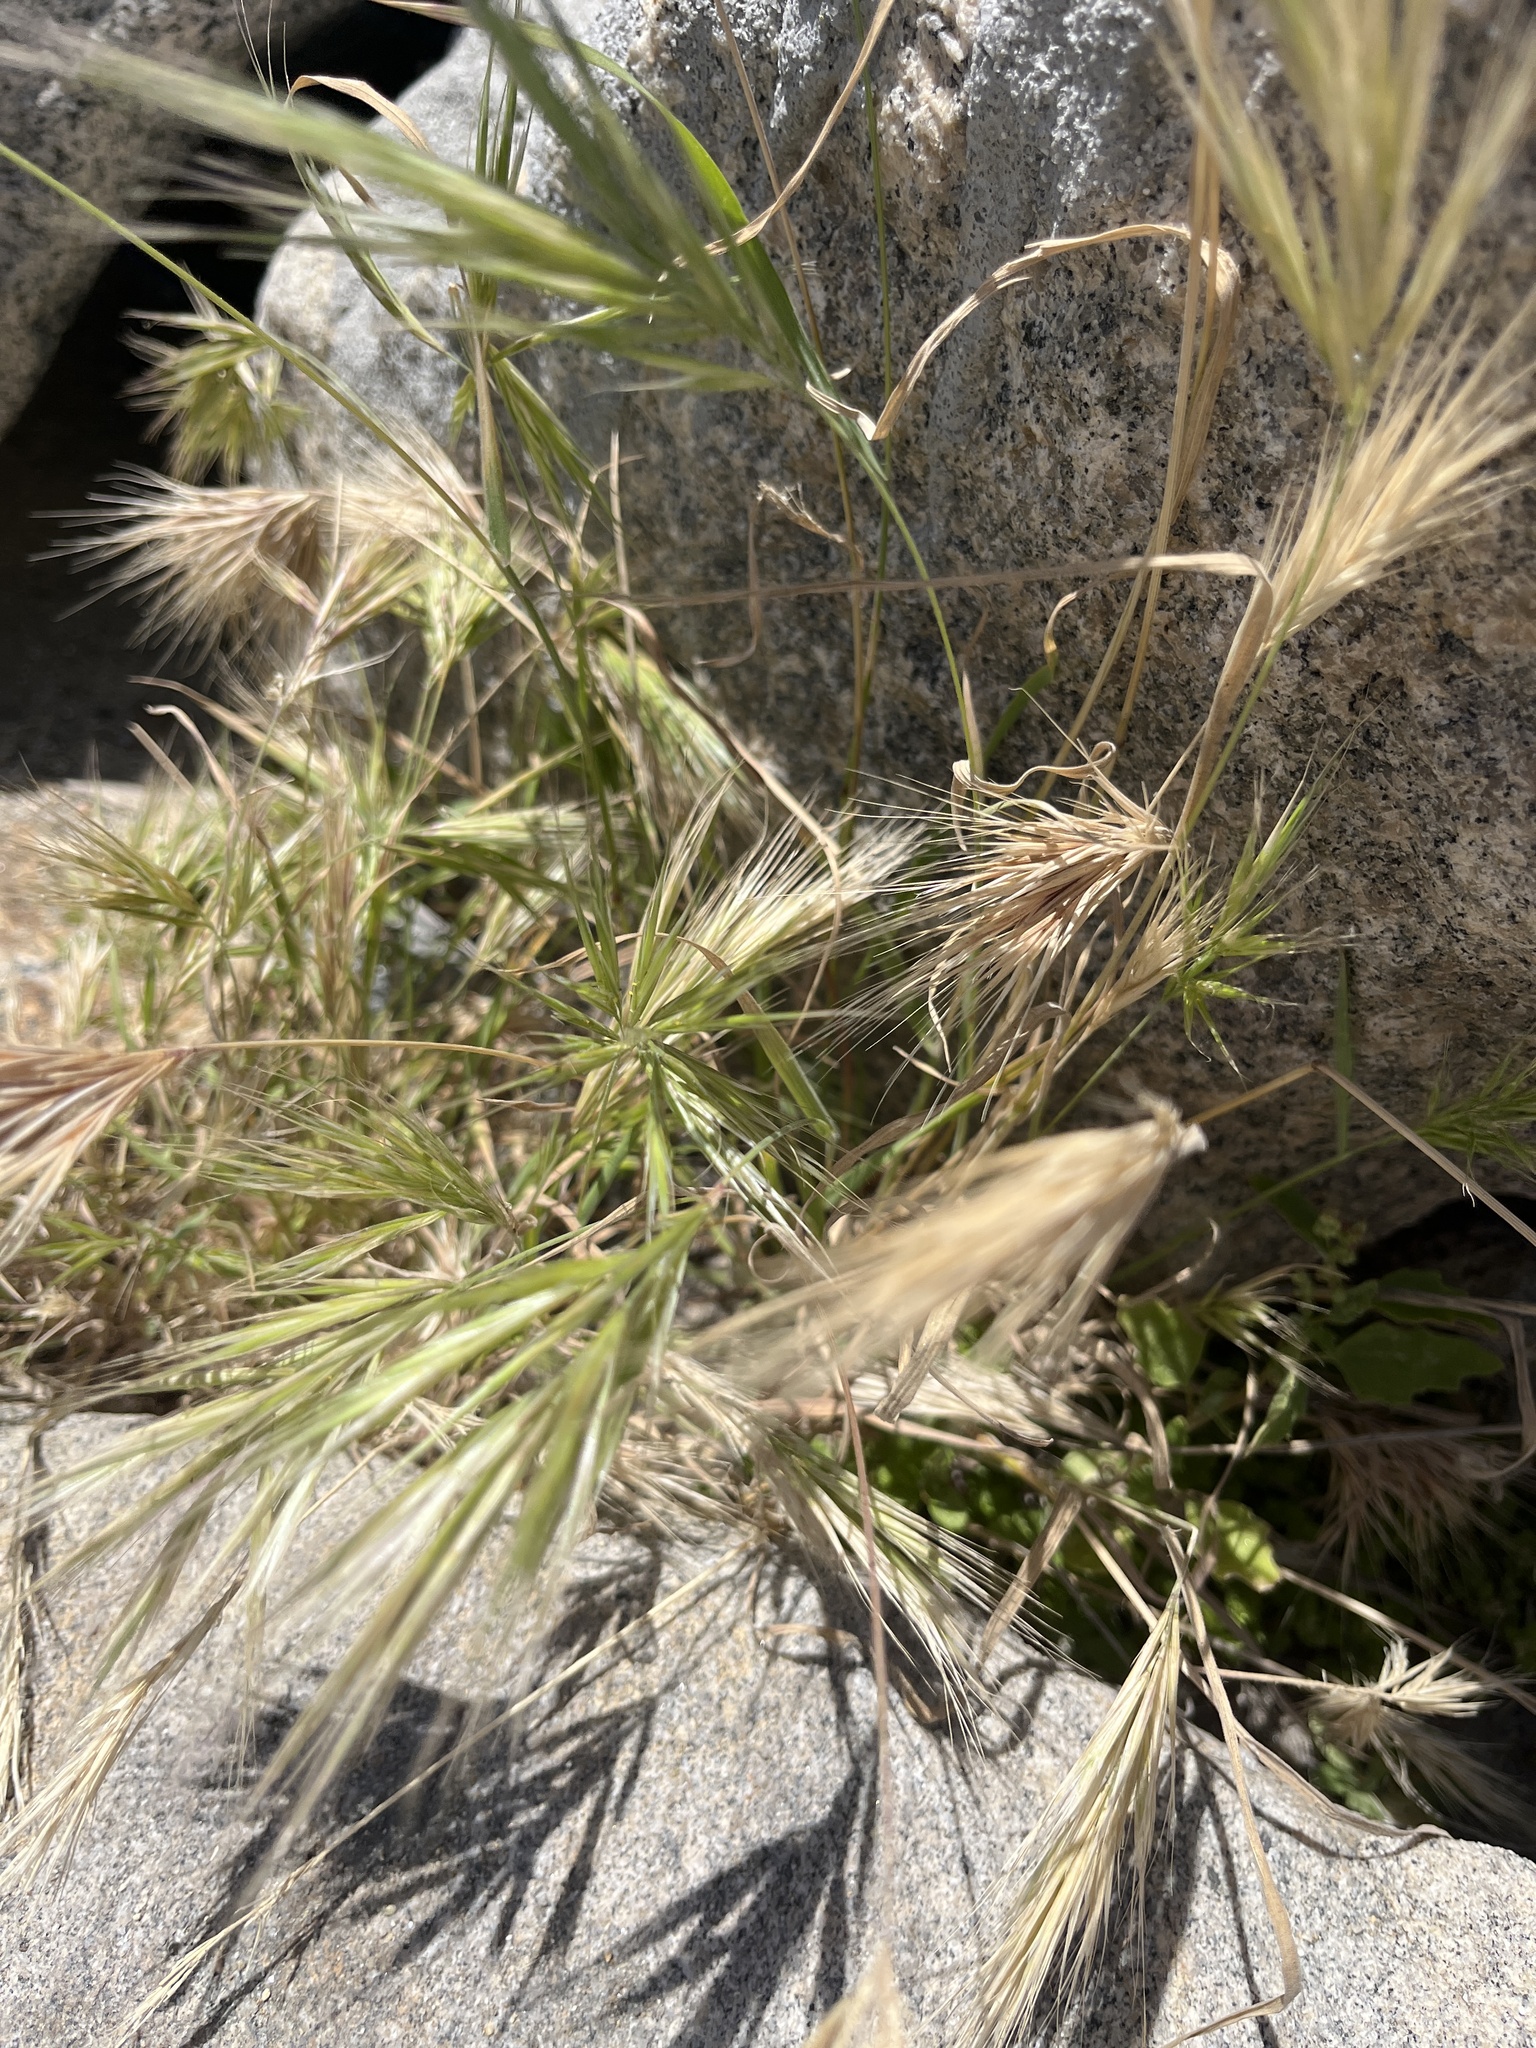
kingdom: Plantae
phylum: Tracheophyta
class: Liliopsida
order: Poales
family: Poaceae
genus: Bromus
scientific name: Bromus madritensis
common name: Compact brome
